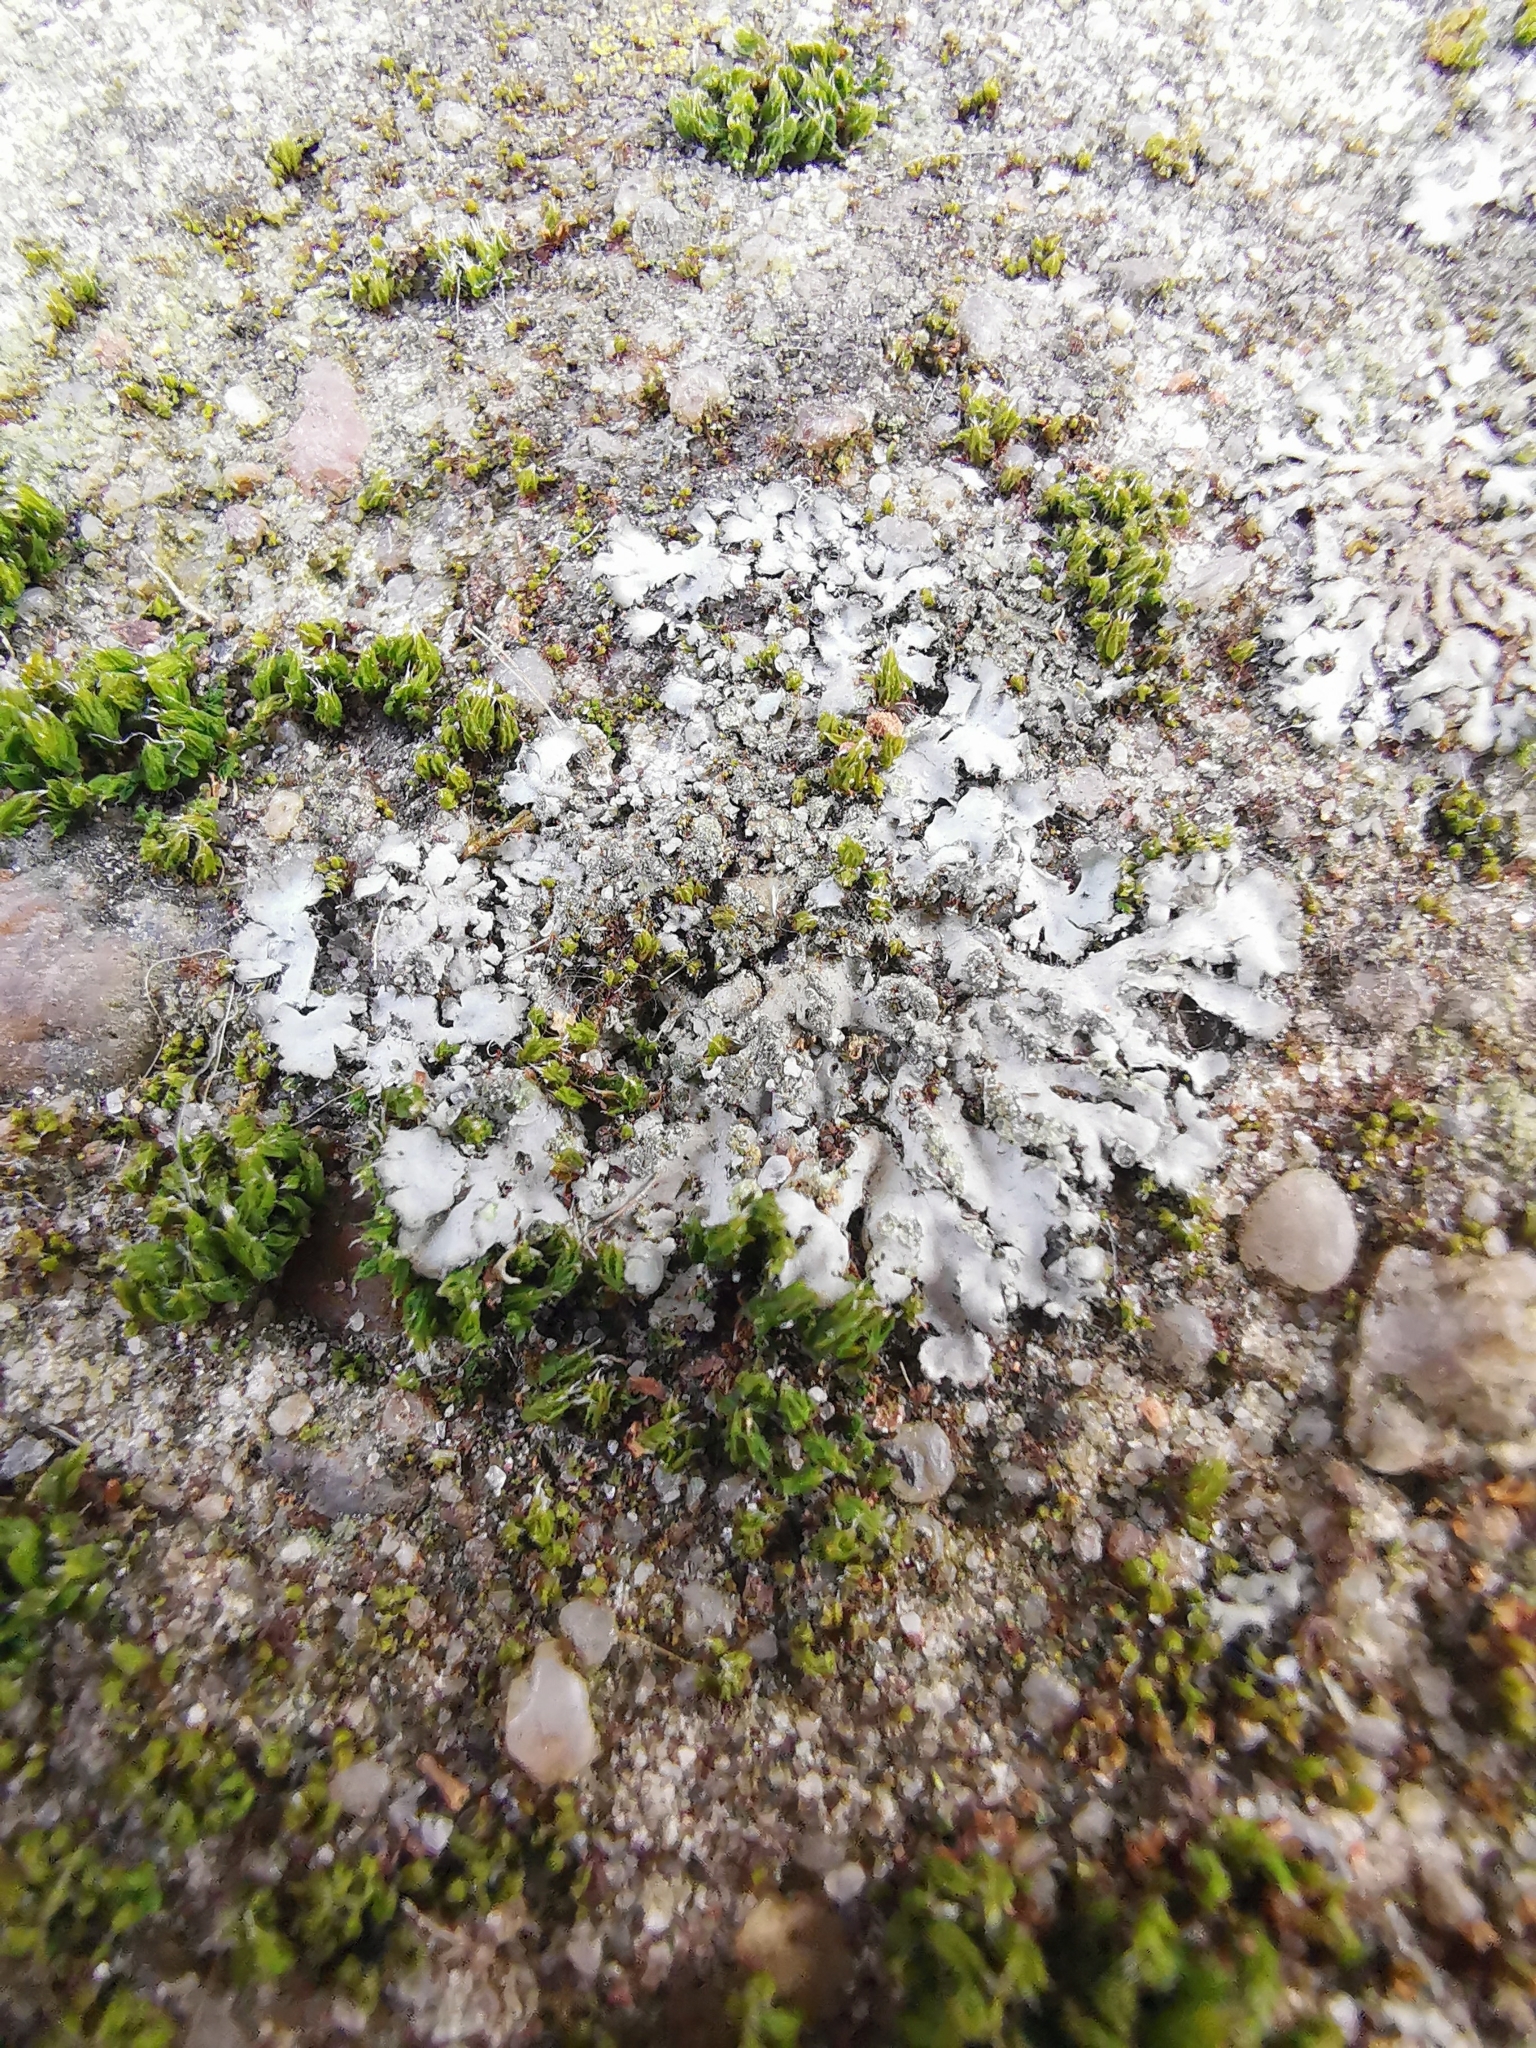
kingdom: Fungi
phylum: Ascomycota
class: Lecanoromycetes
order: Caliciales
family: Physciaceae
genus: Phaeophyscia
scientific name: Phaeophyscia orbicularis
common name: Mealy shadow lichen
